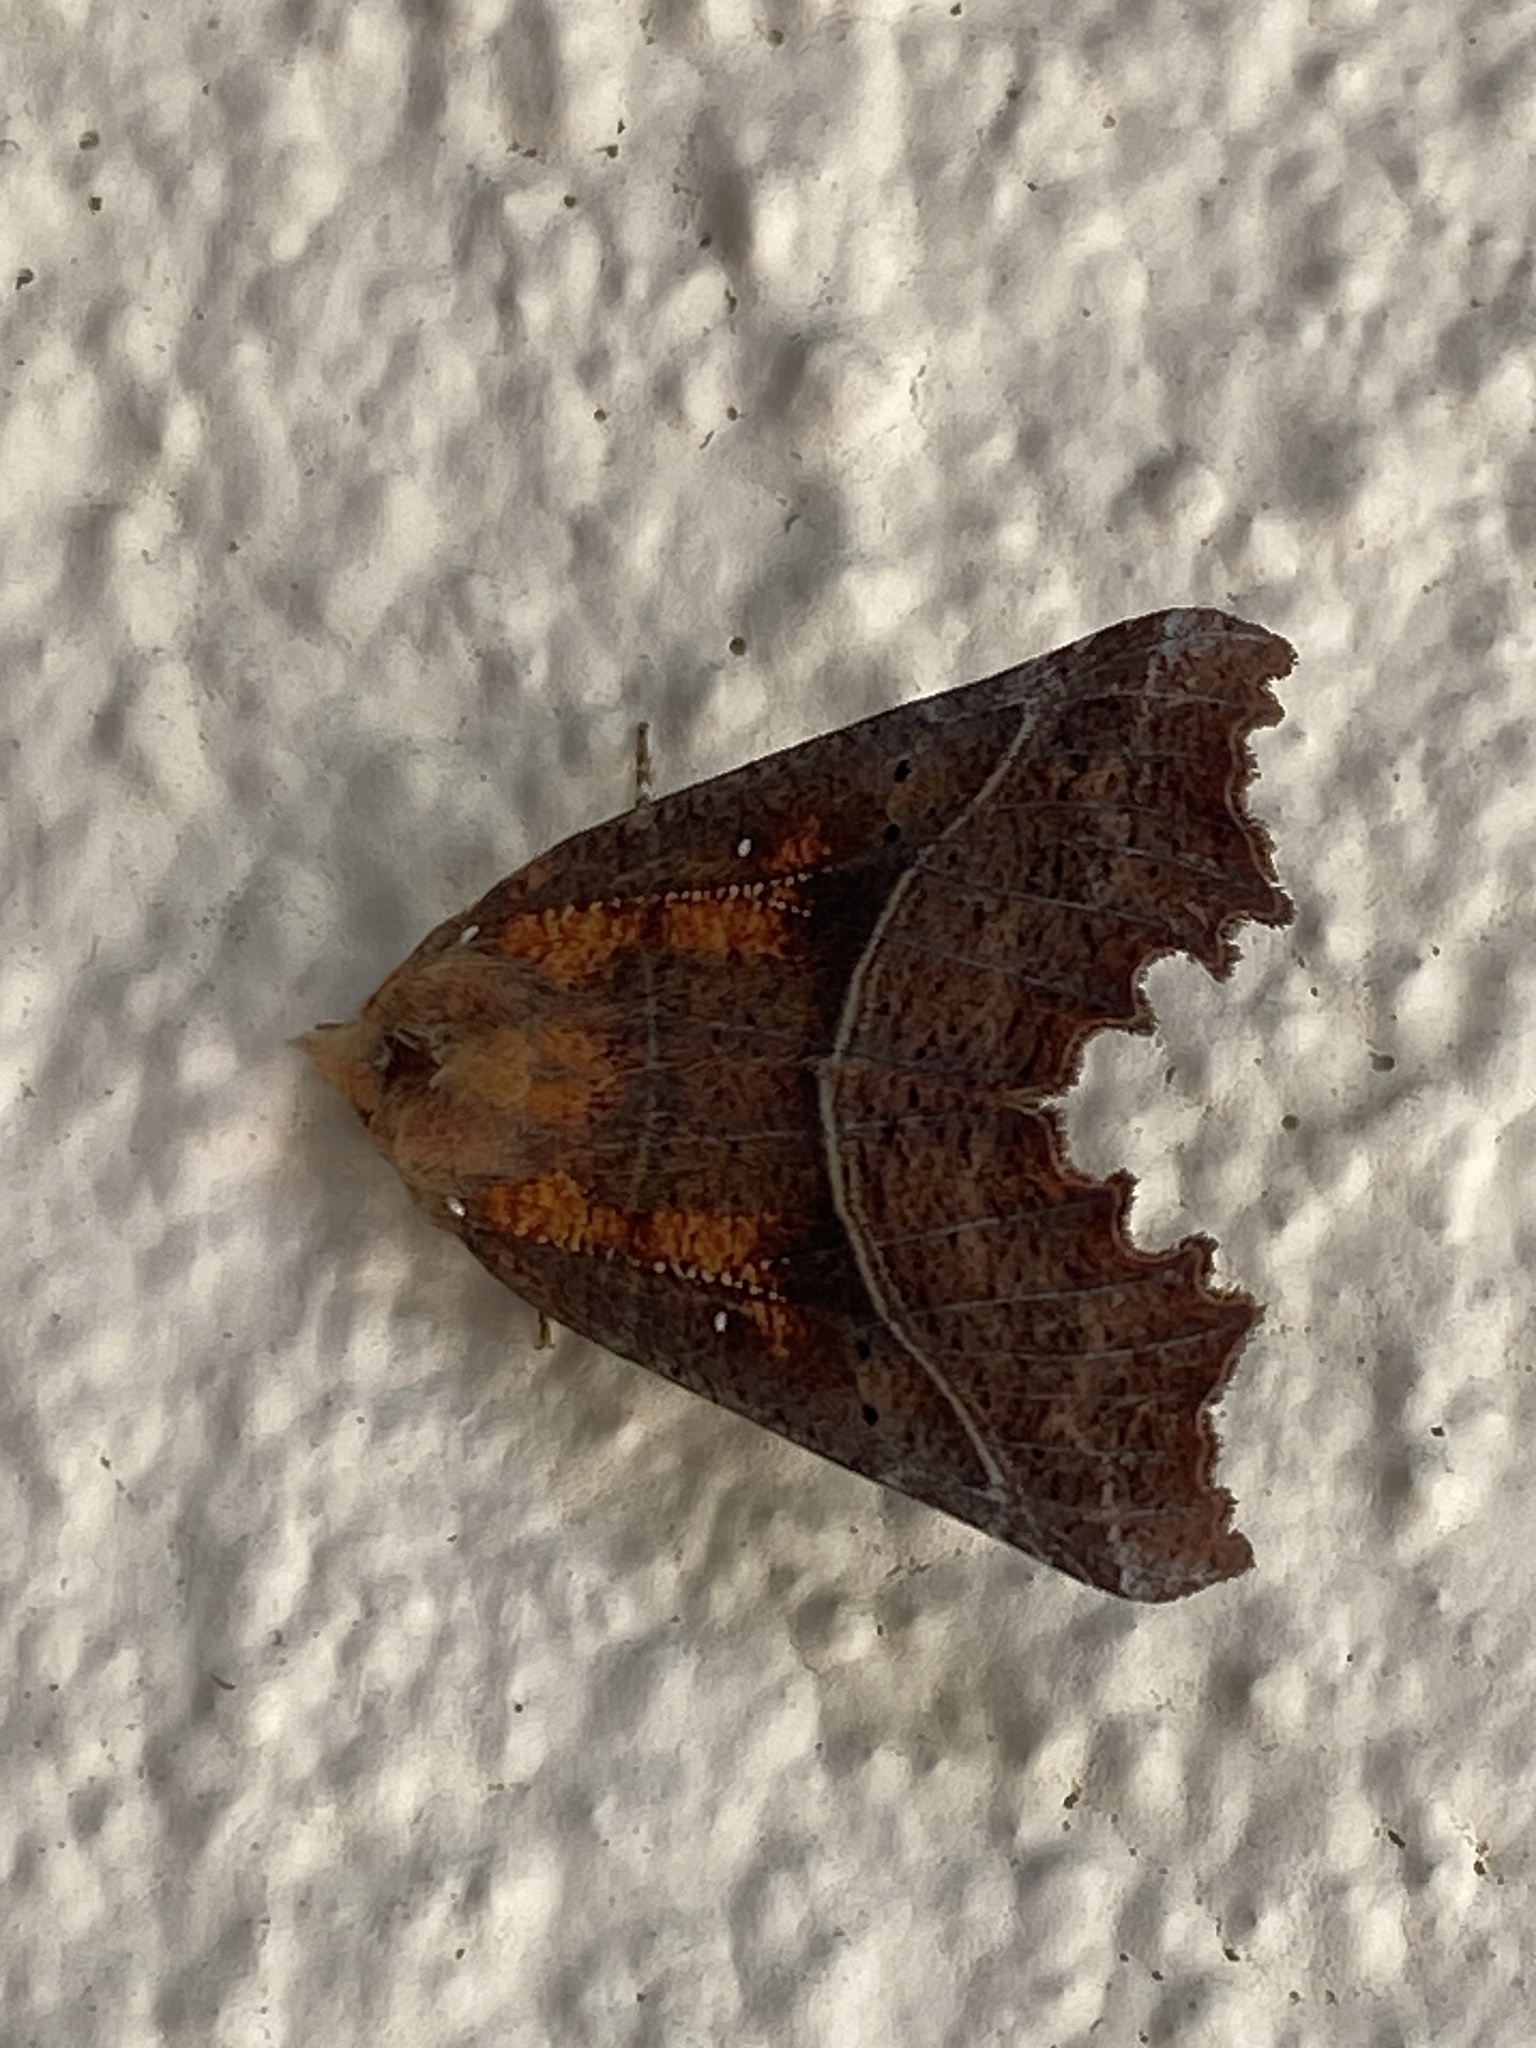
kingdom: Animalia
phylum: Arthropoda
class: Insecta
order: Lepidoptera
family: Erebidae
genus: Scoliopteryx
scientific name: Scoliopteryx libatrix
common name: Herald
